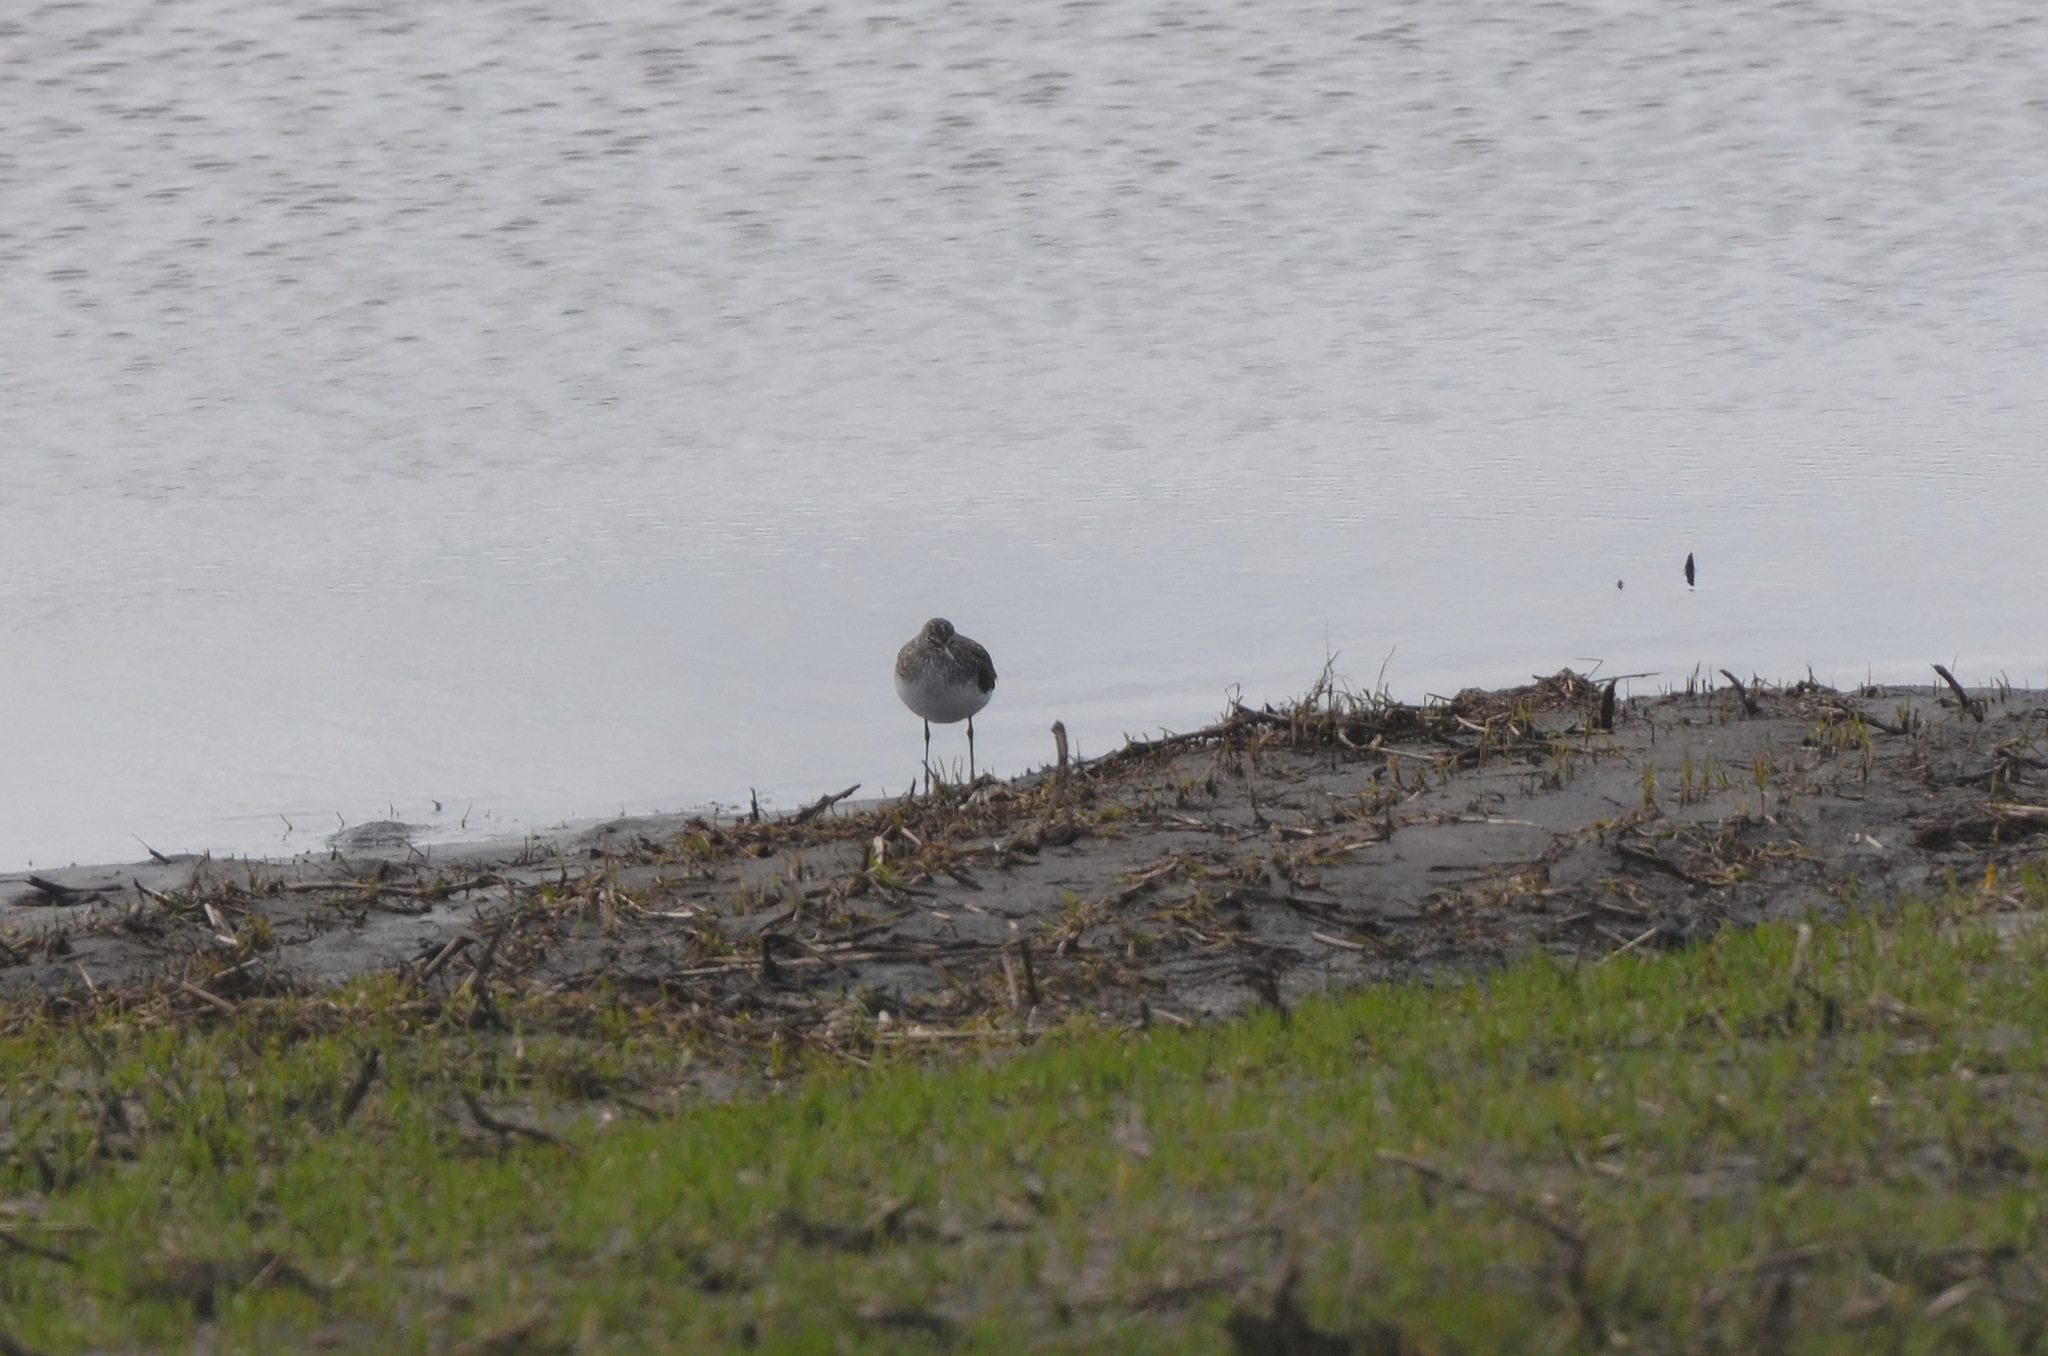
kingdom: Animalia
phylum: Chordata
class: Aves
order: Charadriiformes
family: Scolopacidae
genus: Tringa
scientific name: Tringa ochropus
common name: Green sandpiper
